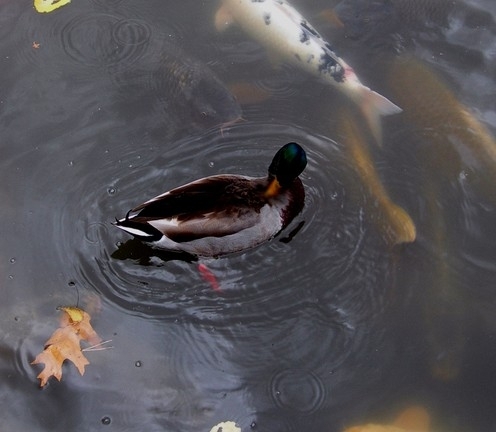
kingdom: Animalia
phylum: Chordata
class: Aves
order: Anseriformes
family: Anatidae
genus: Anas
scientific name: Anas platyrhynchos
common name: Mallard
